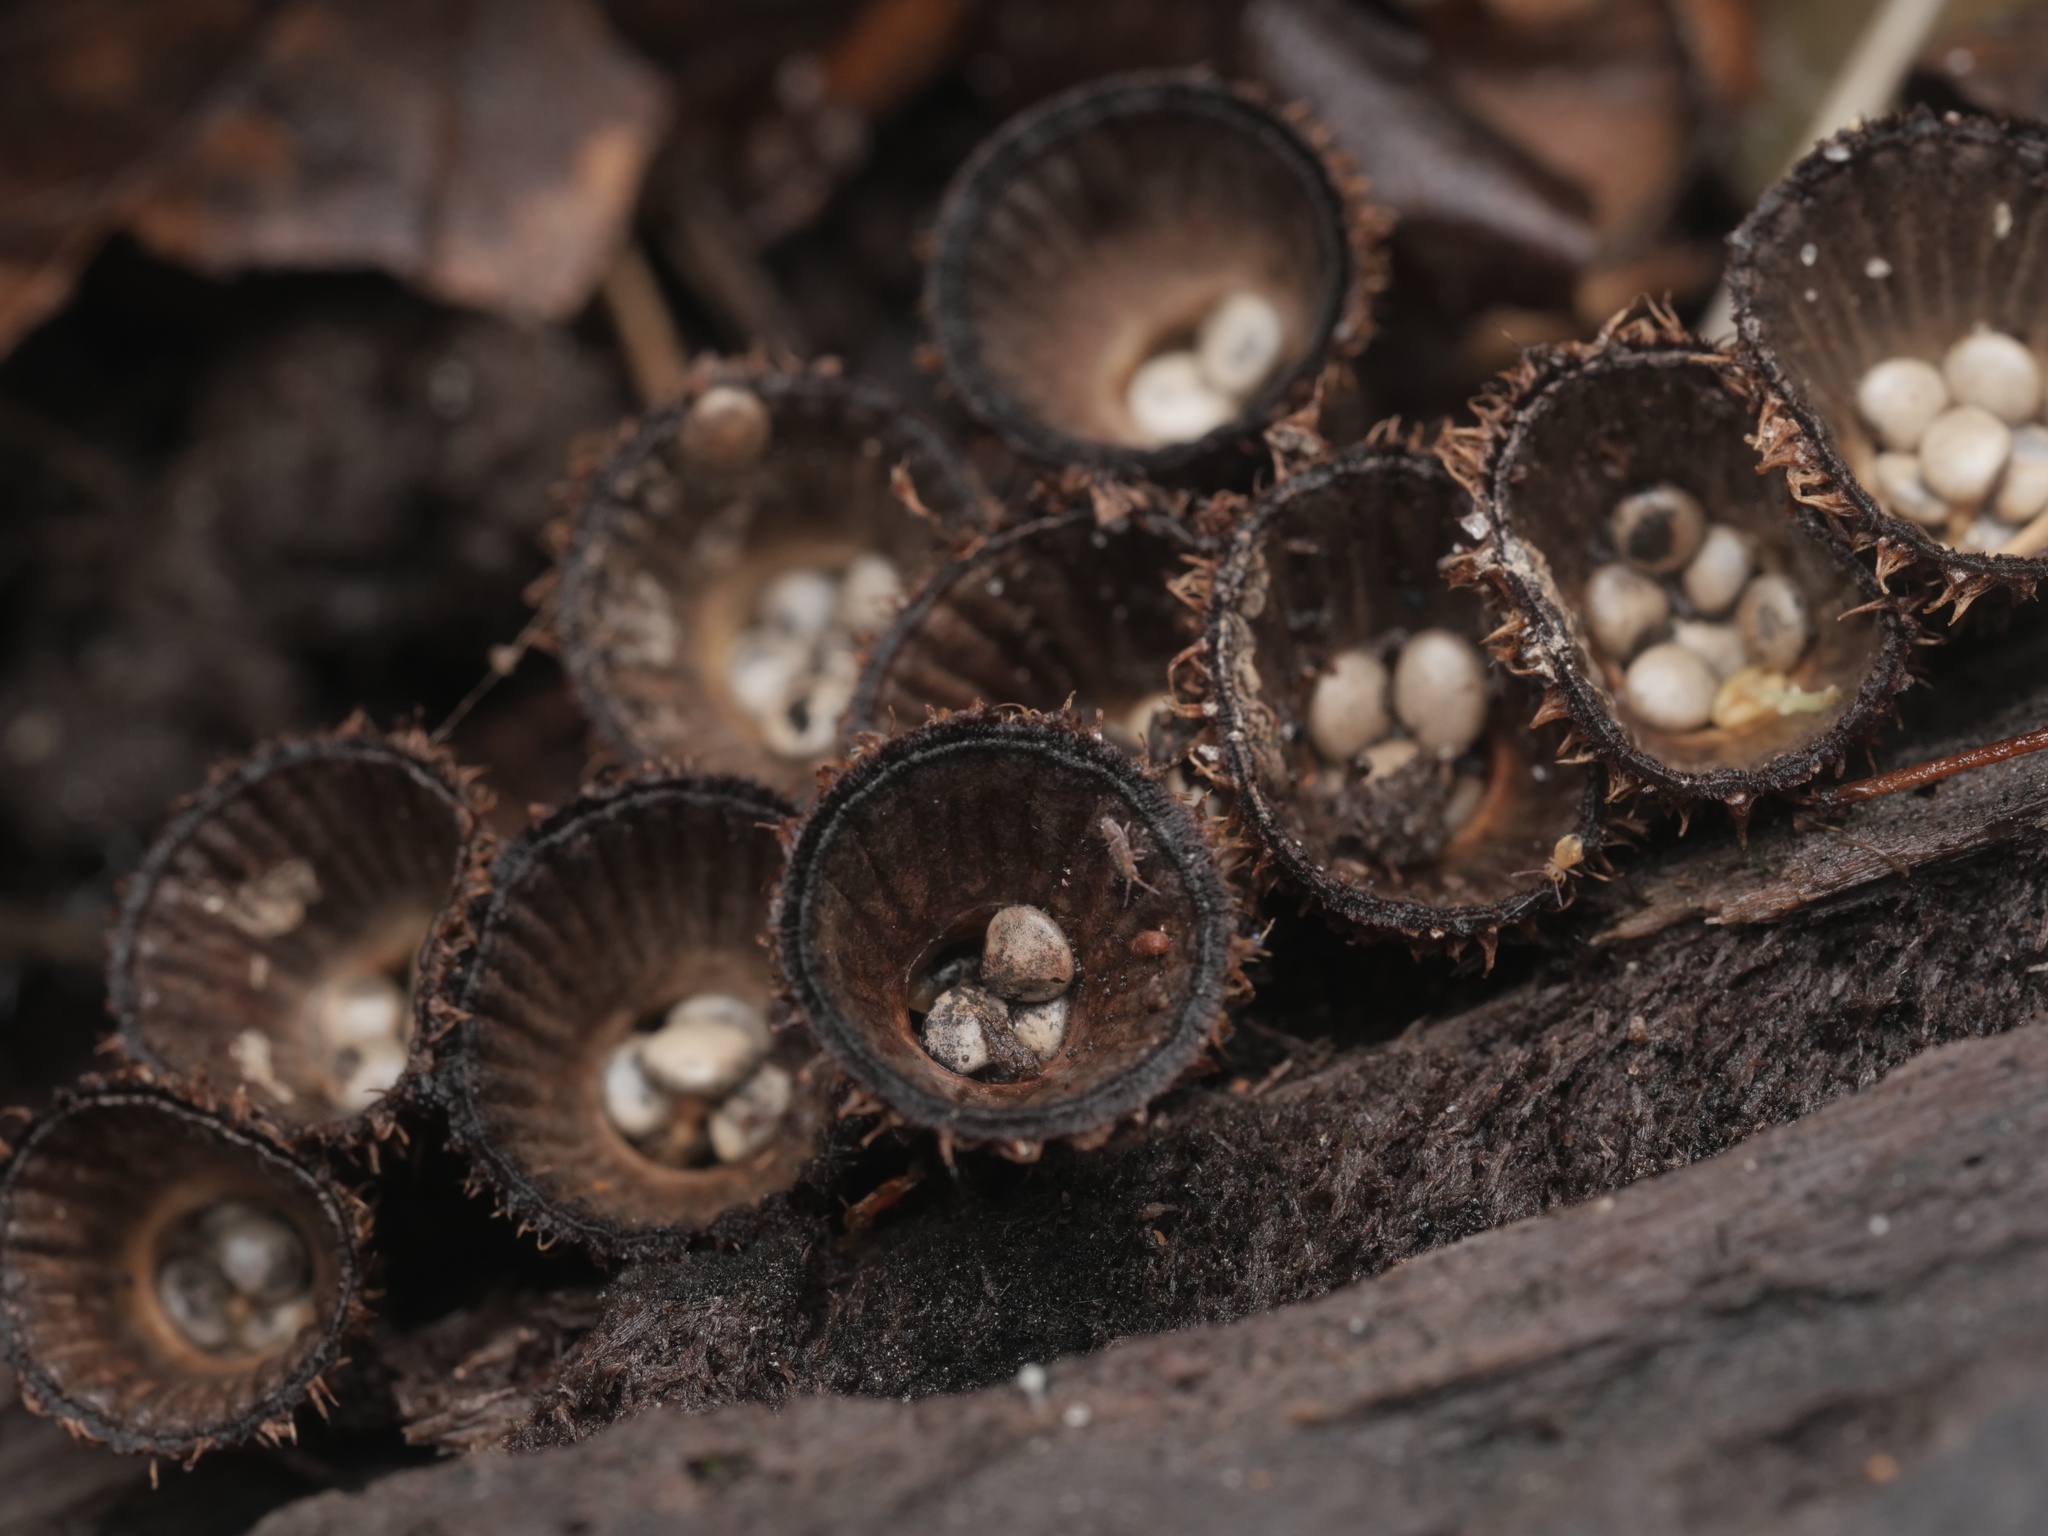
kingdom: Fungi
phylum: Basidiomycota
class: Agaricomycetes
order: Agaricales
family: Agaricaceae
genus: Cyathus
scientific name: Cyathus striatus
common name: Fluted bird's nest
